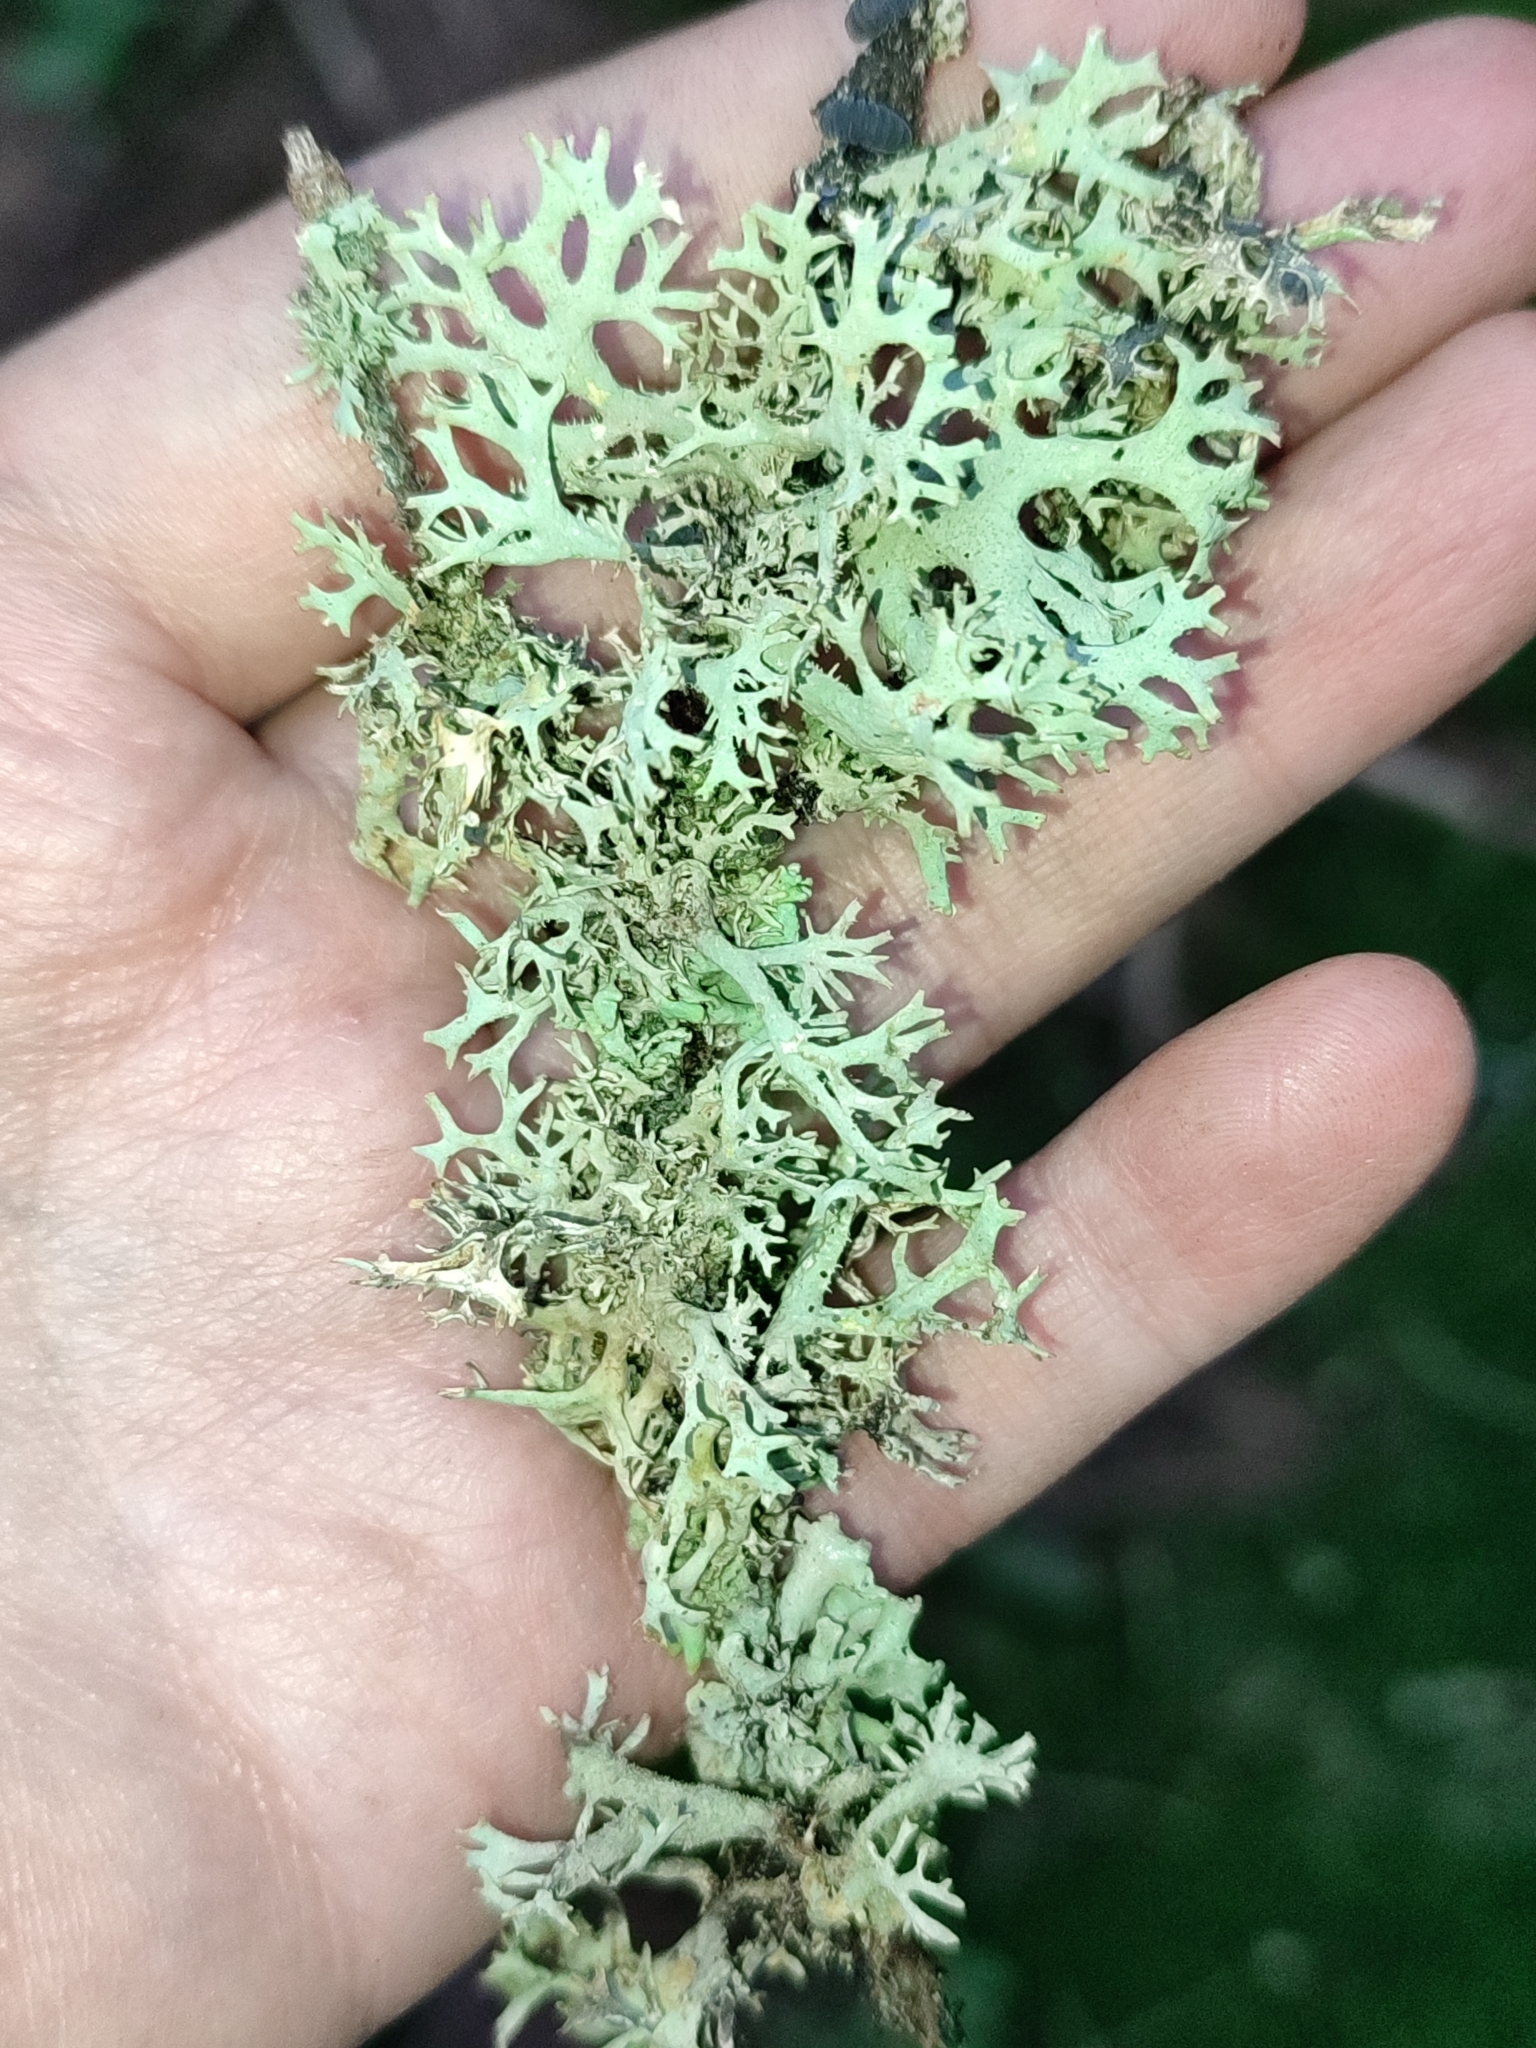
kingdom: Fungi
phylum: Ascomycota
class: Lecanoromycetes
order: Lecanorales
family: Parmeliaceae
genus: Pseudevernia
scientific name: Pseudevernia furfuracea
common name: Tree moss
